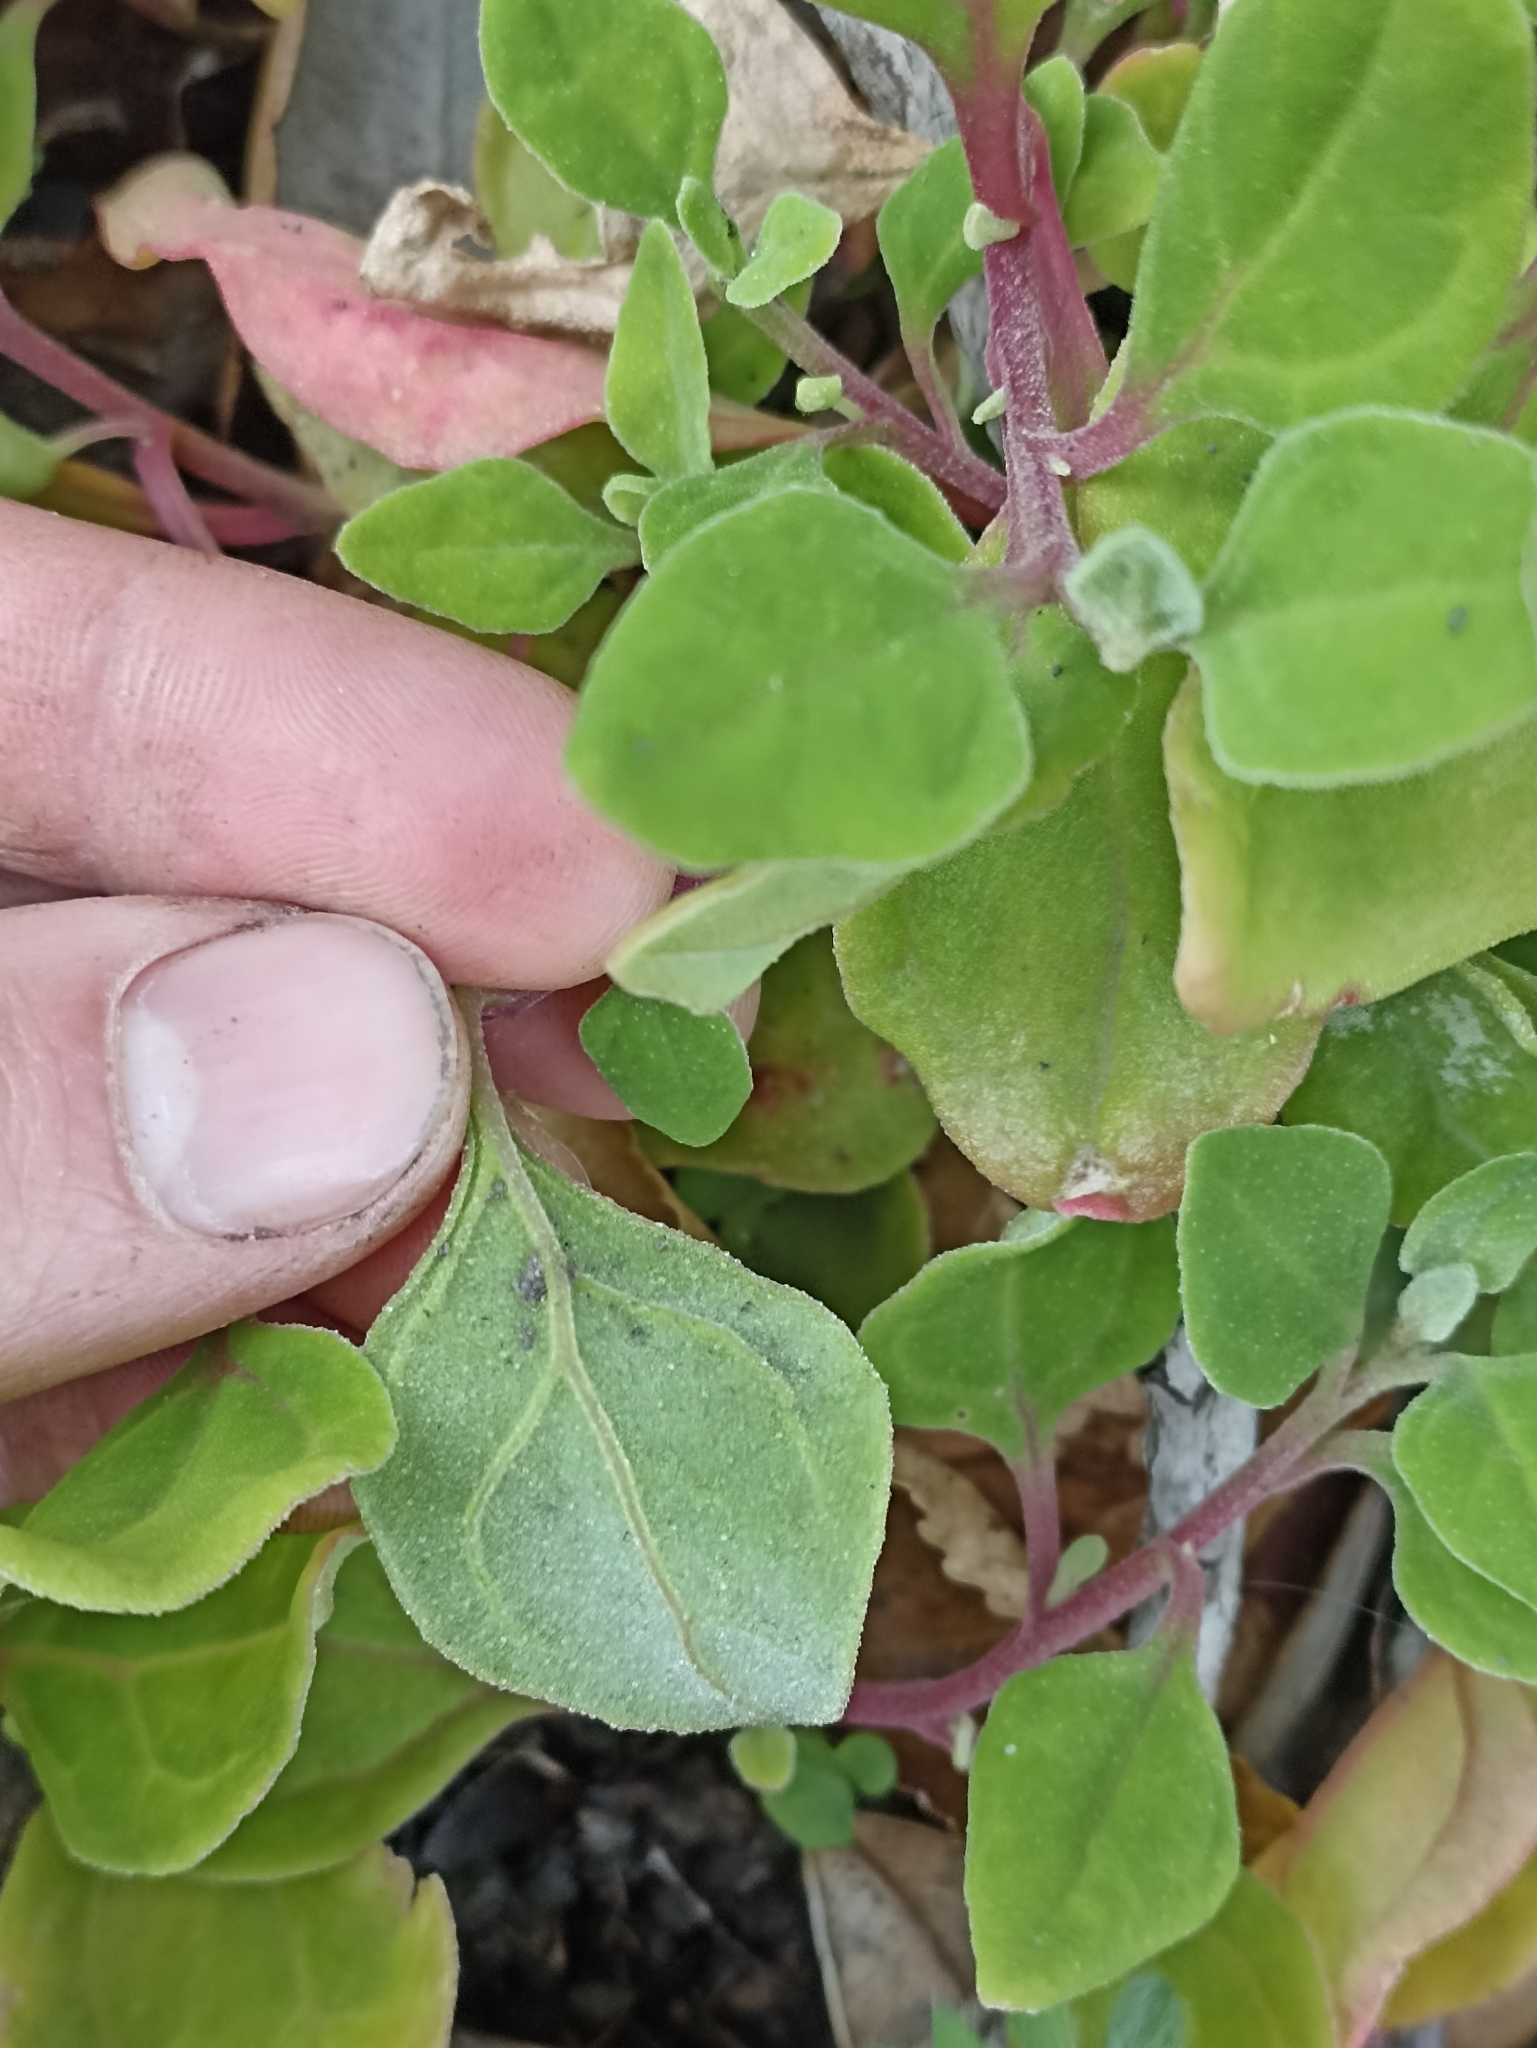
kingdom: Plantae
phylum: Tracheophyta
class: Magnoliopsida
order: Caryophyllales
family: Aizoaceae
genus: Tetragonia
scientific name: Tetragonia implexicoma
